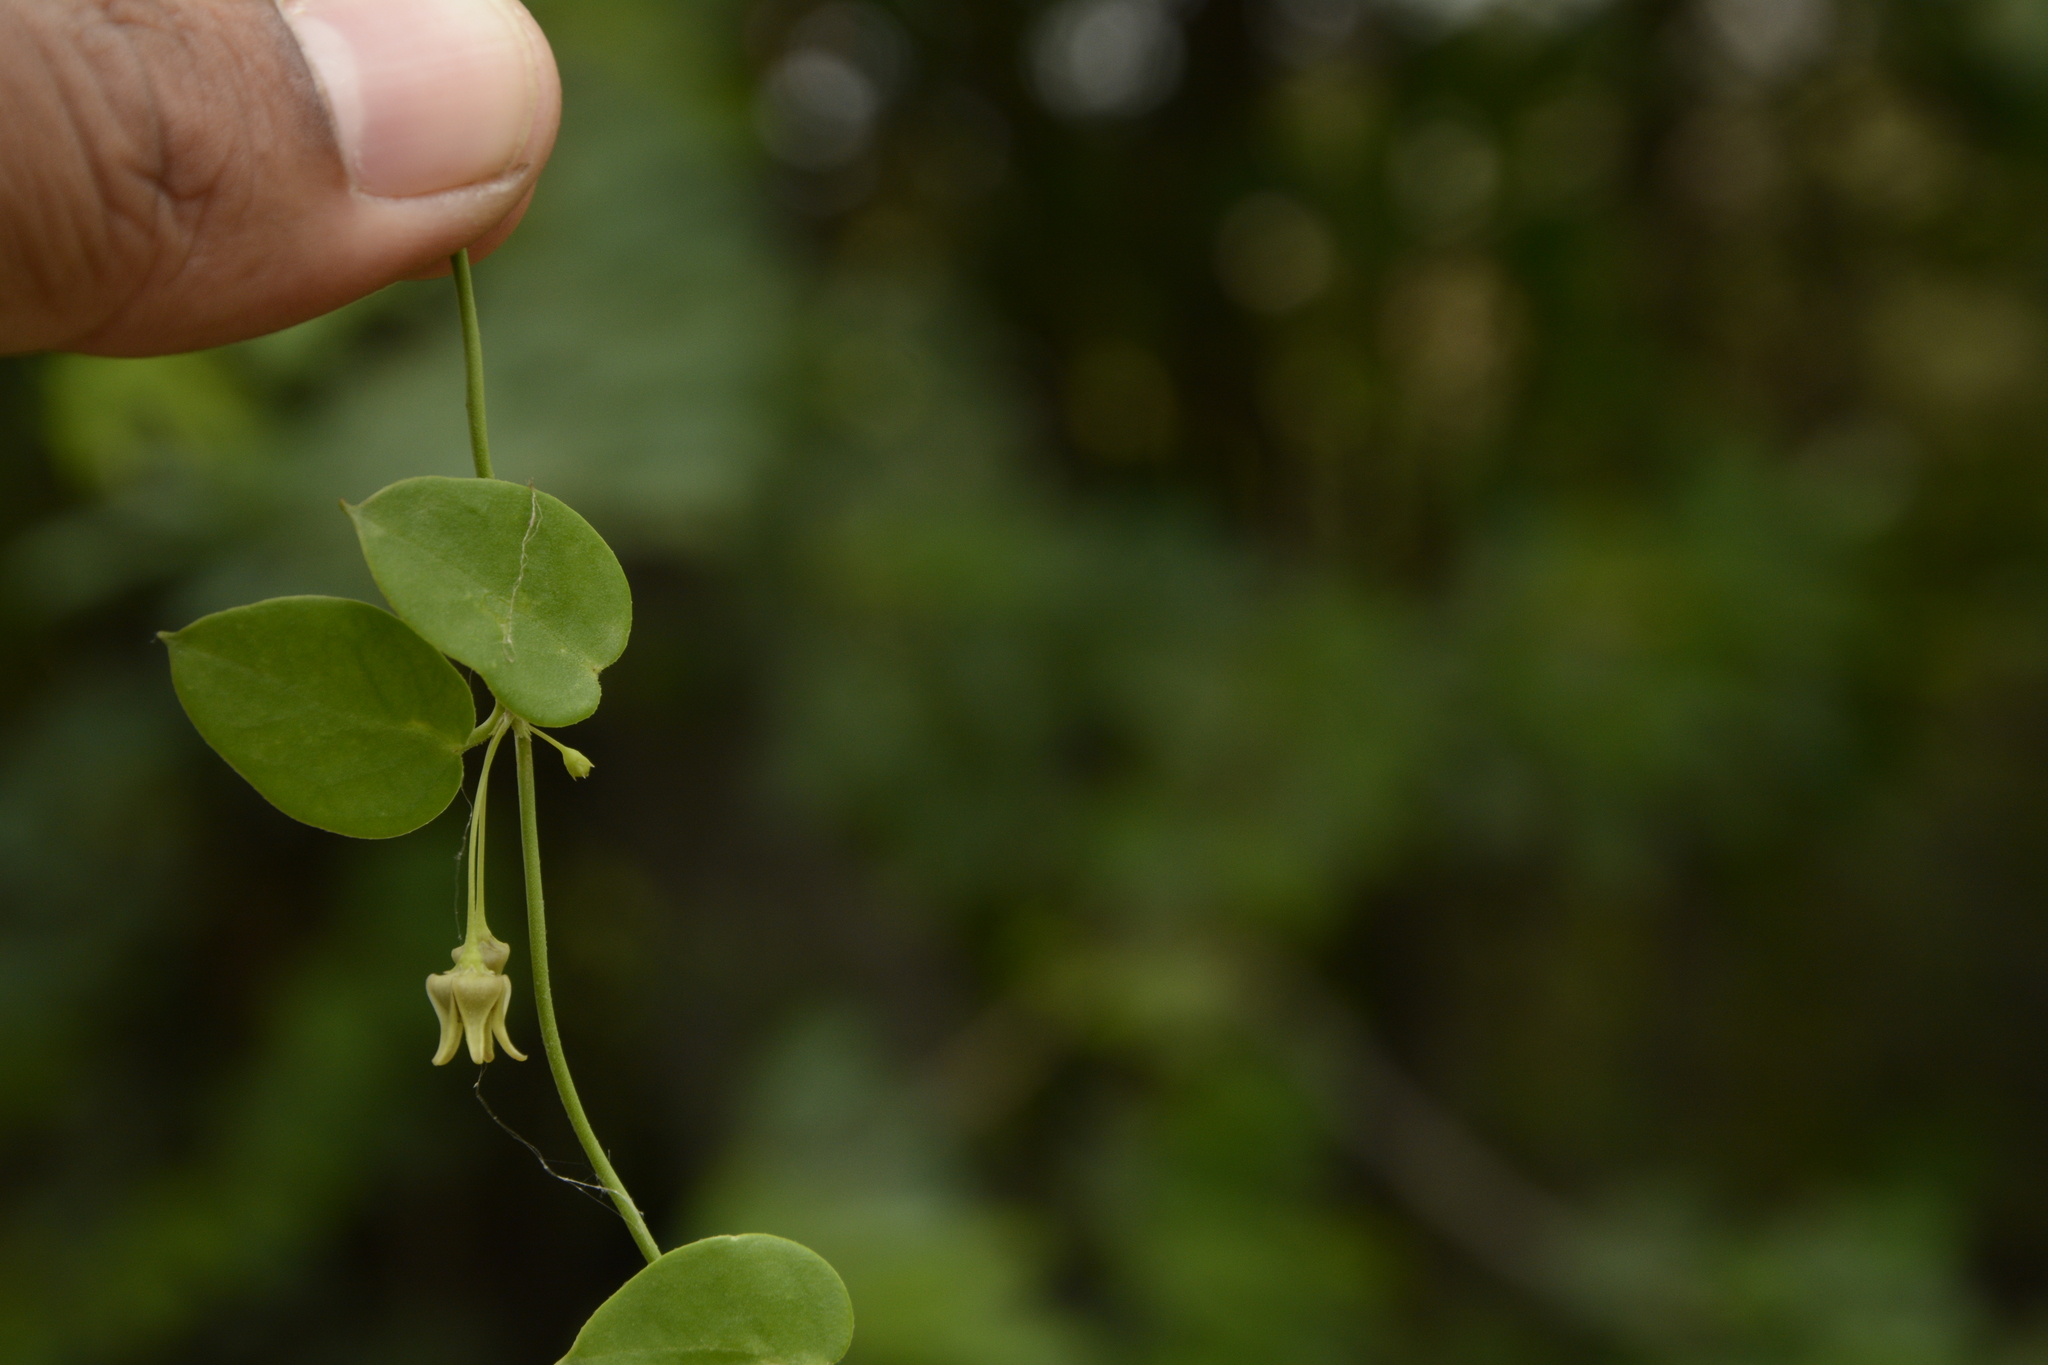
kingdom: Plantae
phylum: Tracheophyta
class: Magnoliopsida
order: Gentianales
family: Apocynaceae
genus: Pentatropis
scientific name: Pentatropis capensis
